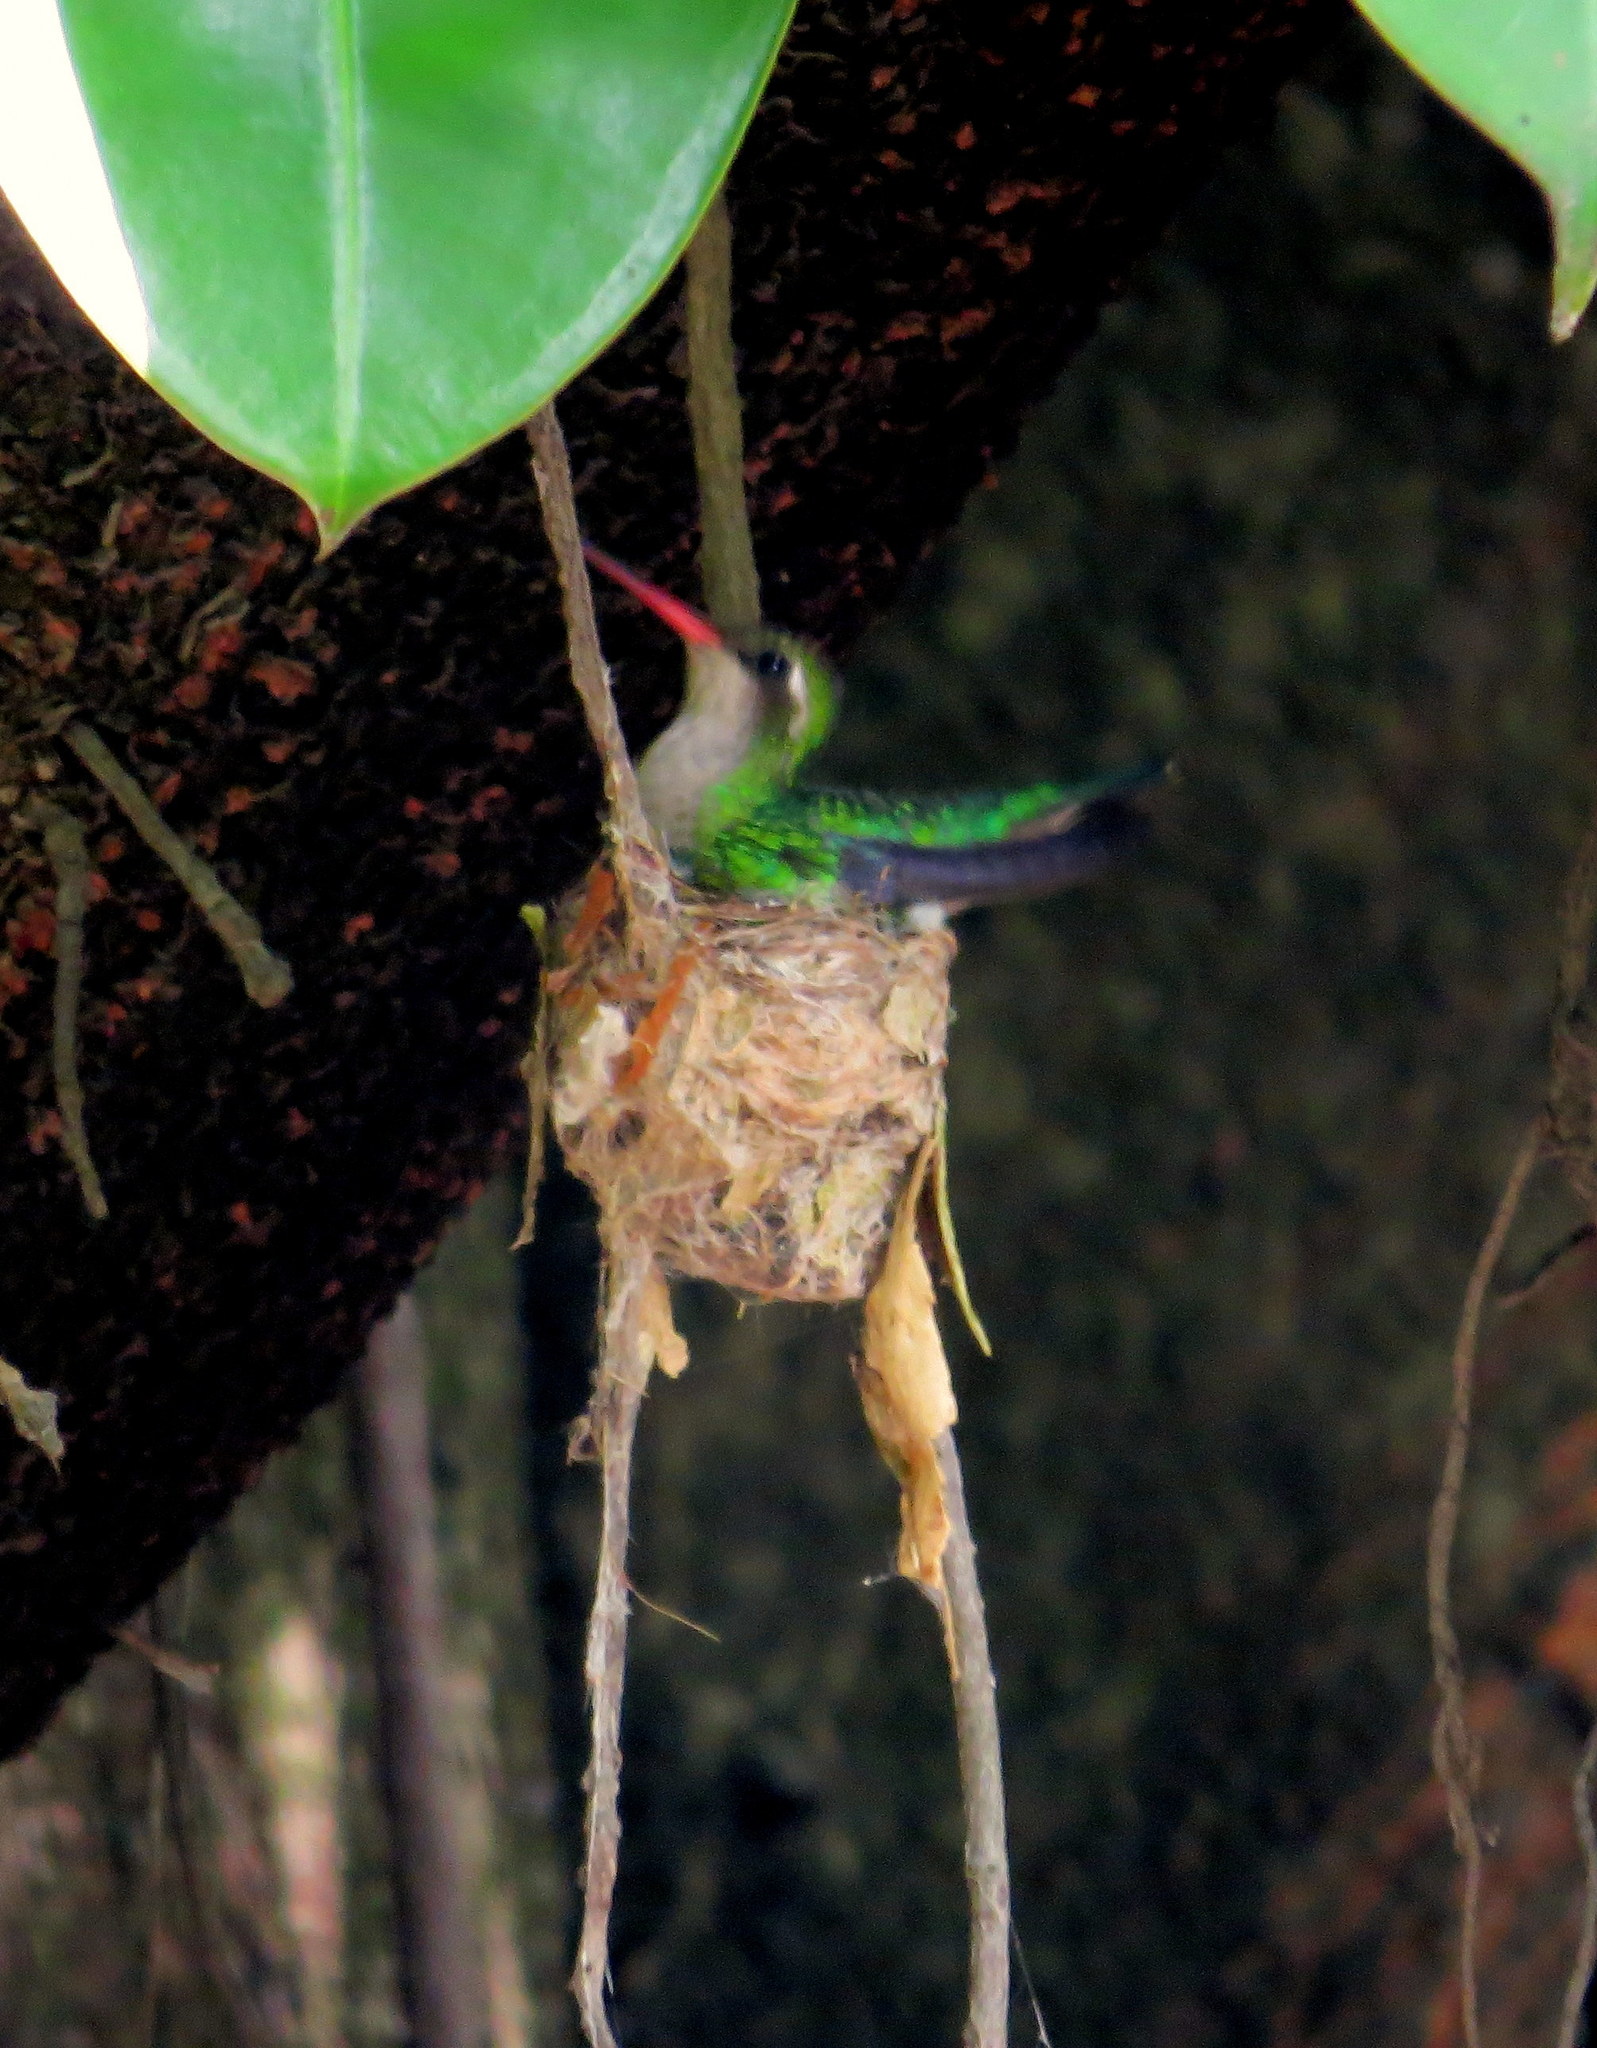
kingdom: Animalia
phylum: Chordata
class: Aves
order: Apodiformes
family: Trochilidae
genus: Chlorostilbon
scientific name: Chlorostilbon lucidus
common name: Glittering-bellied emerald
